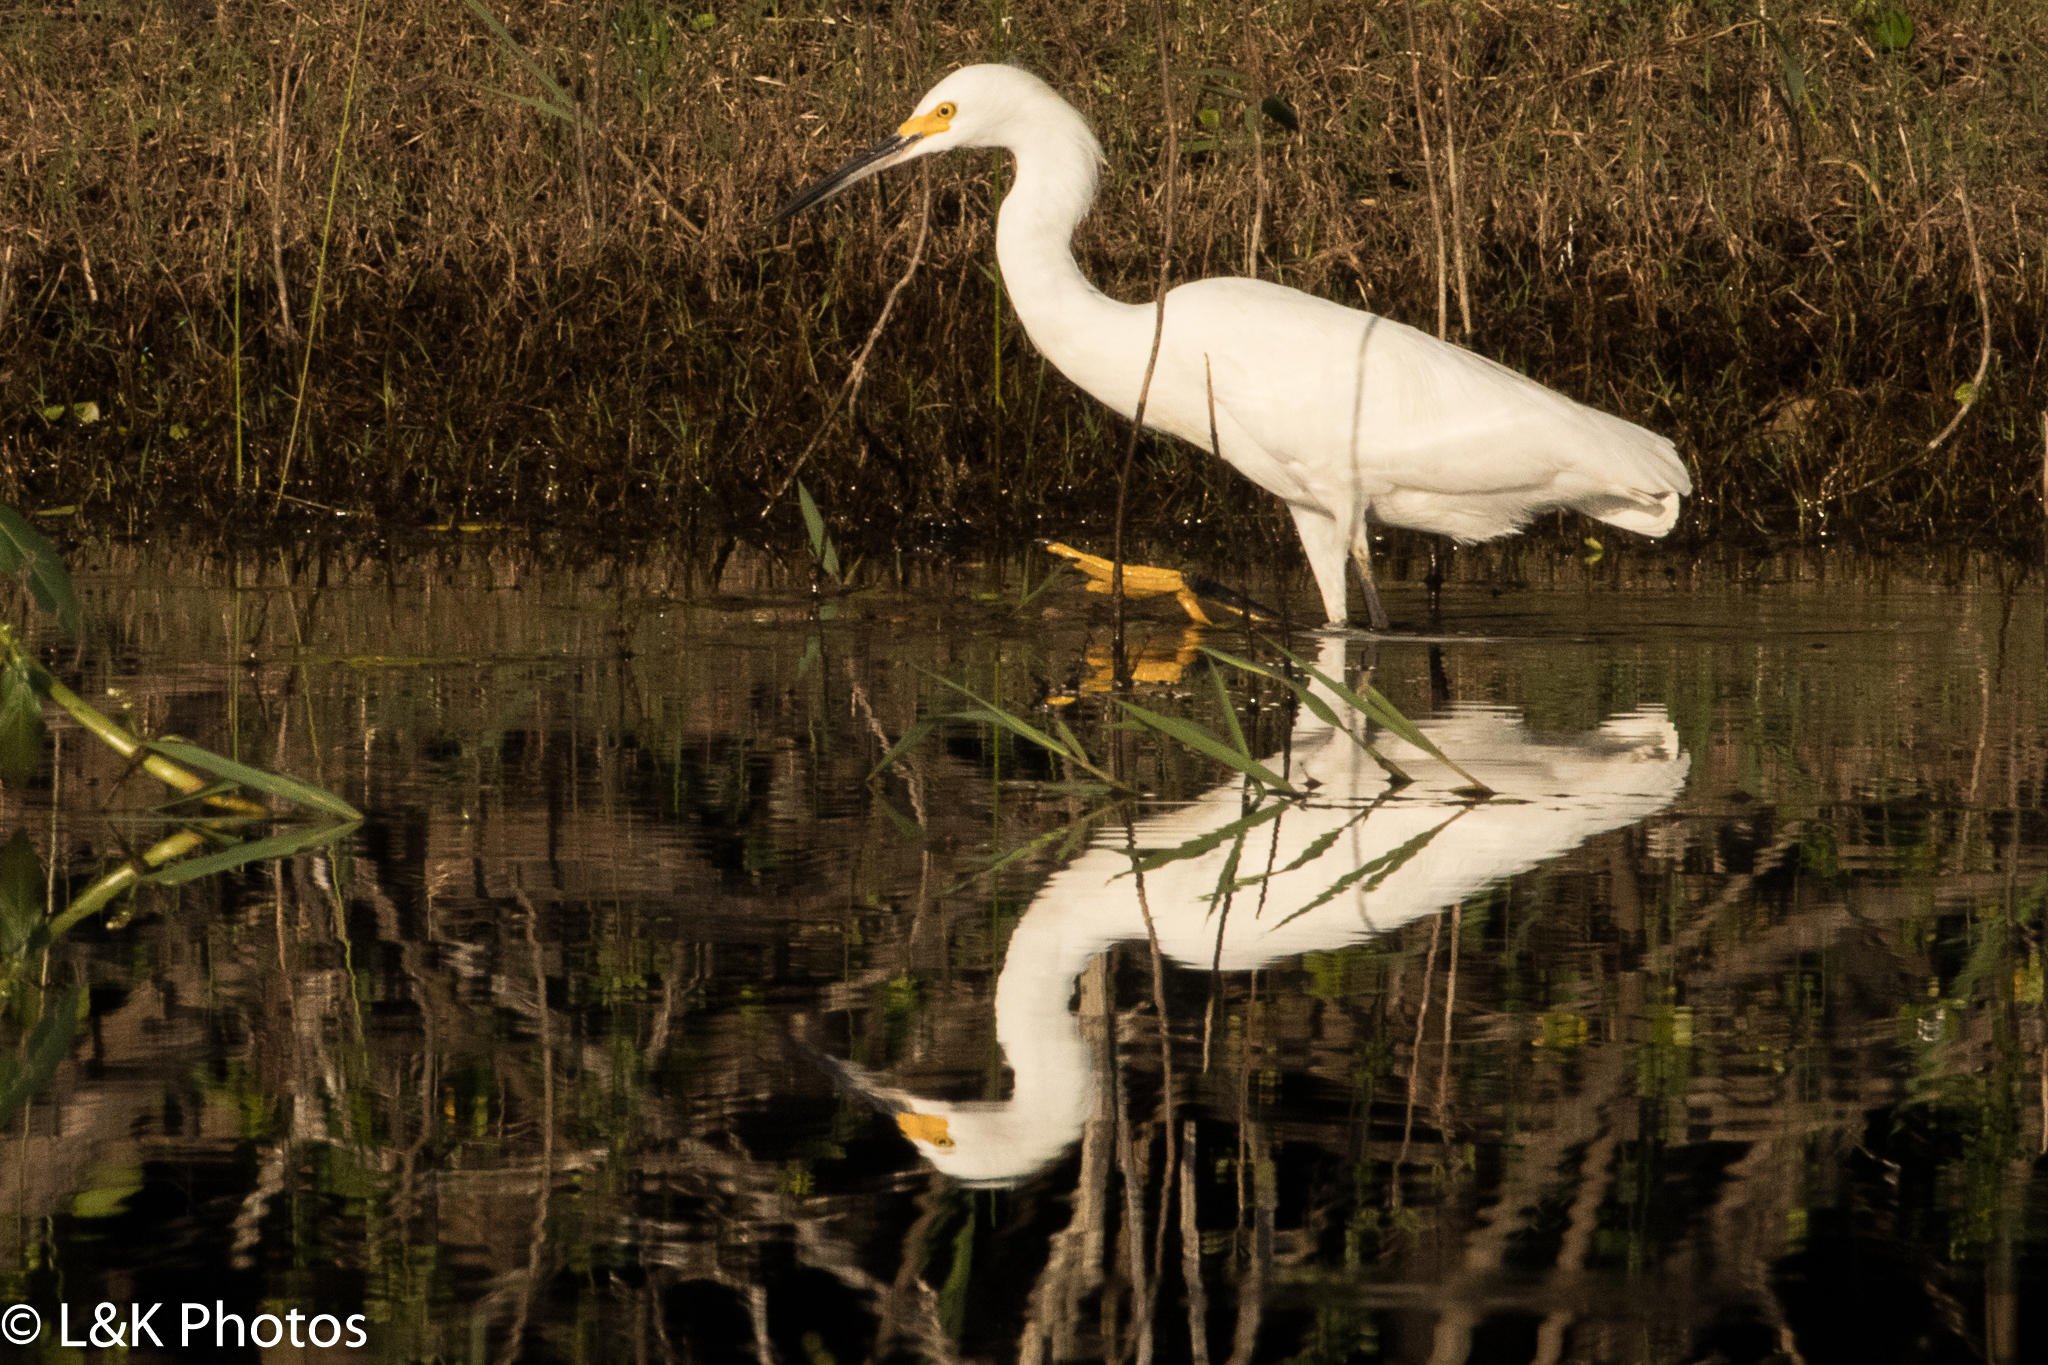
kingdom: Animalia
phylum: Chordata
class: Aves
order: Pelecaniformes
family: Ardeidae
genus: Egretta
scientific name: Egretta thula
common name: Snowy egret
